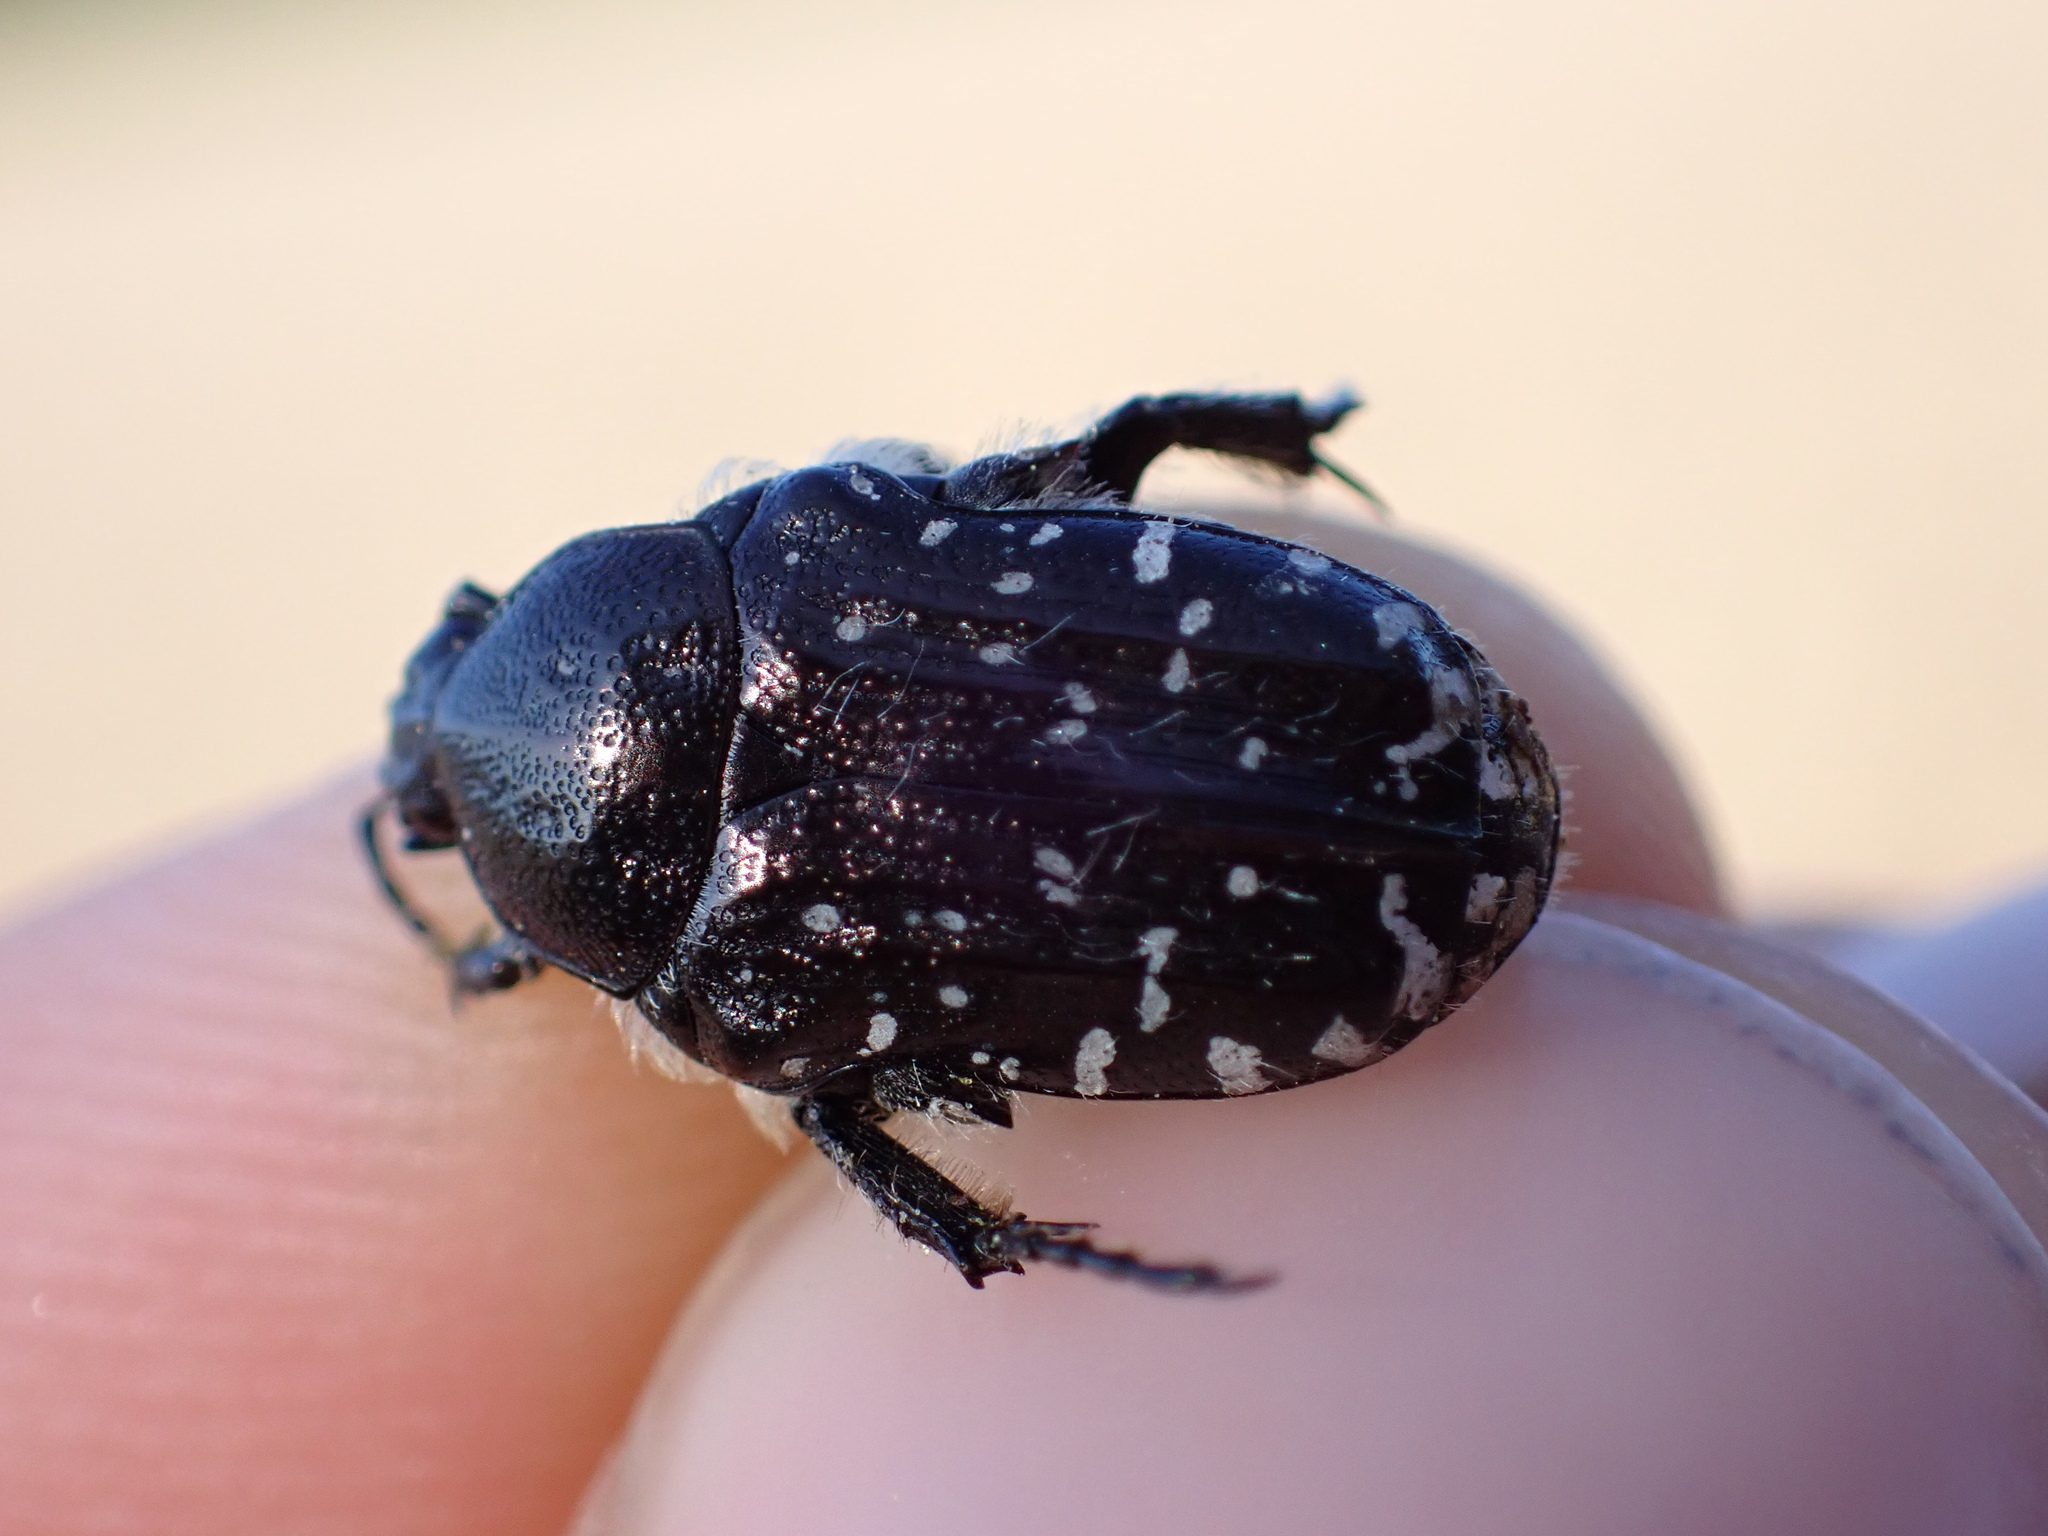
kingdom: Animalia
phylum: Arthropoda
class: Insecta
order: Coleoptera
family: Scarabaeidae
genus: Oxythyrea
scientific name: Oxythyrea funesta
